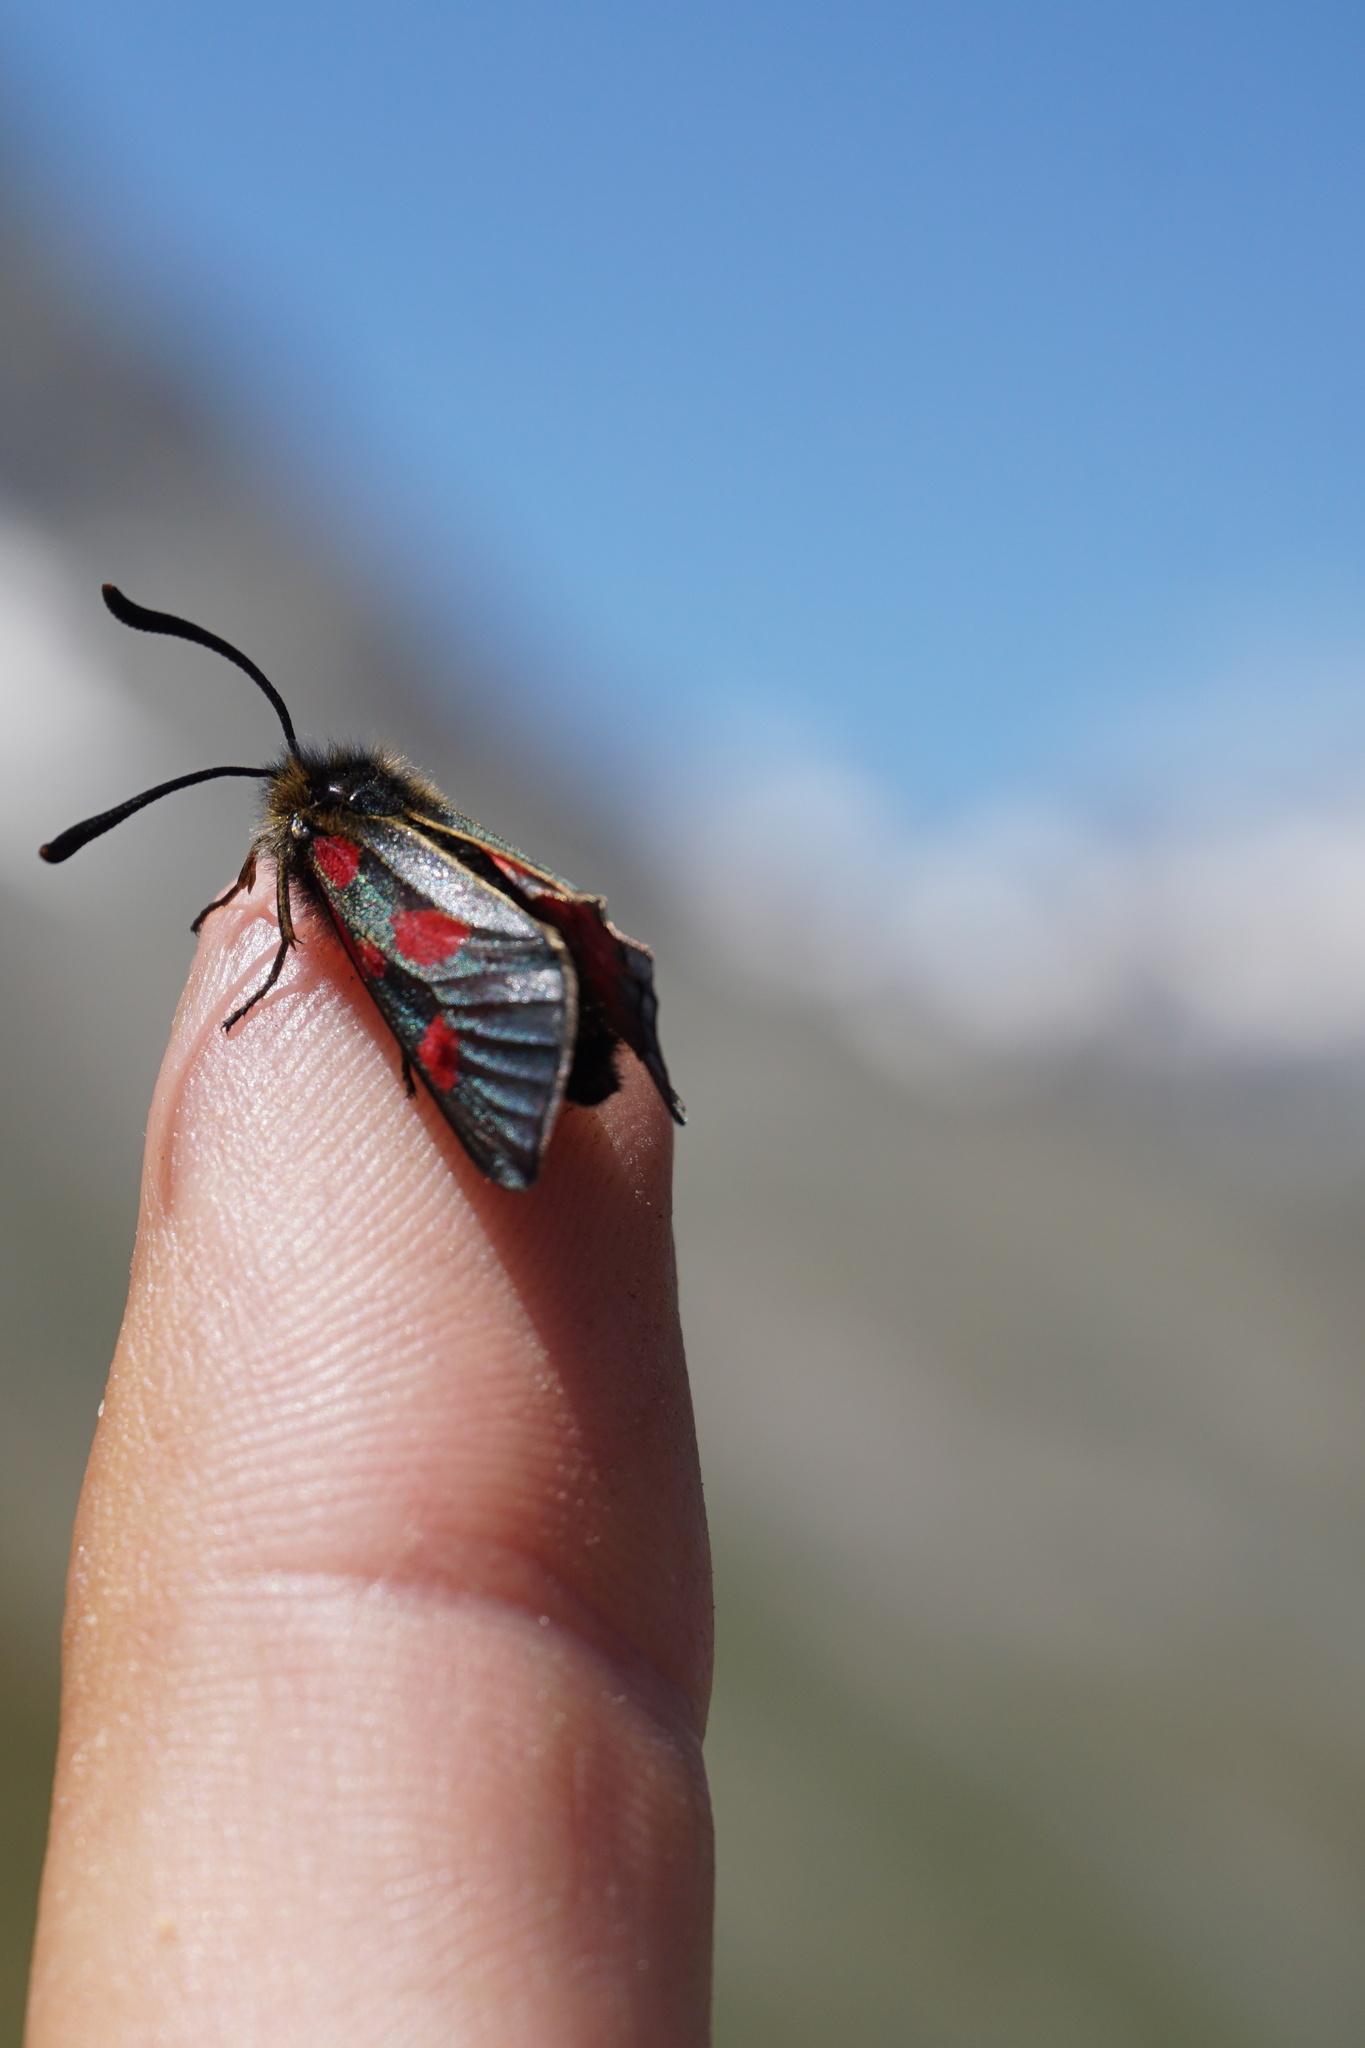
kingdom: Animalia
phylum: Arthropoda
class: Insecta
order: Lepidoptera
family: Zygaenidae
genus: Zygaena
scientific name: Zygaena exulans
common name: Scotch burnet
